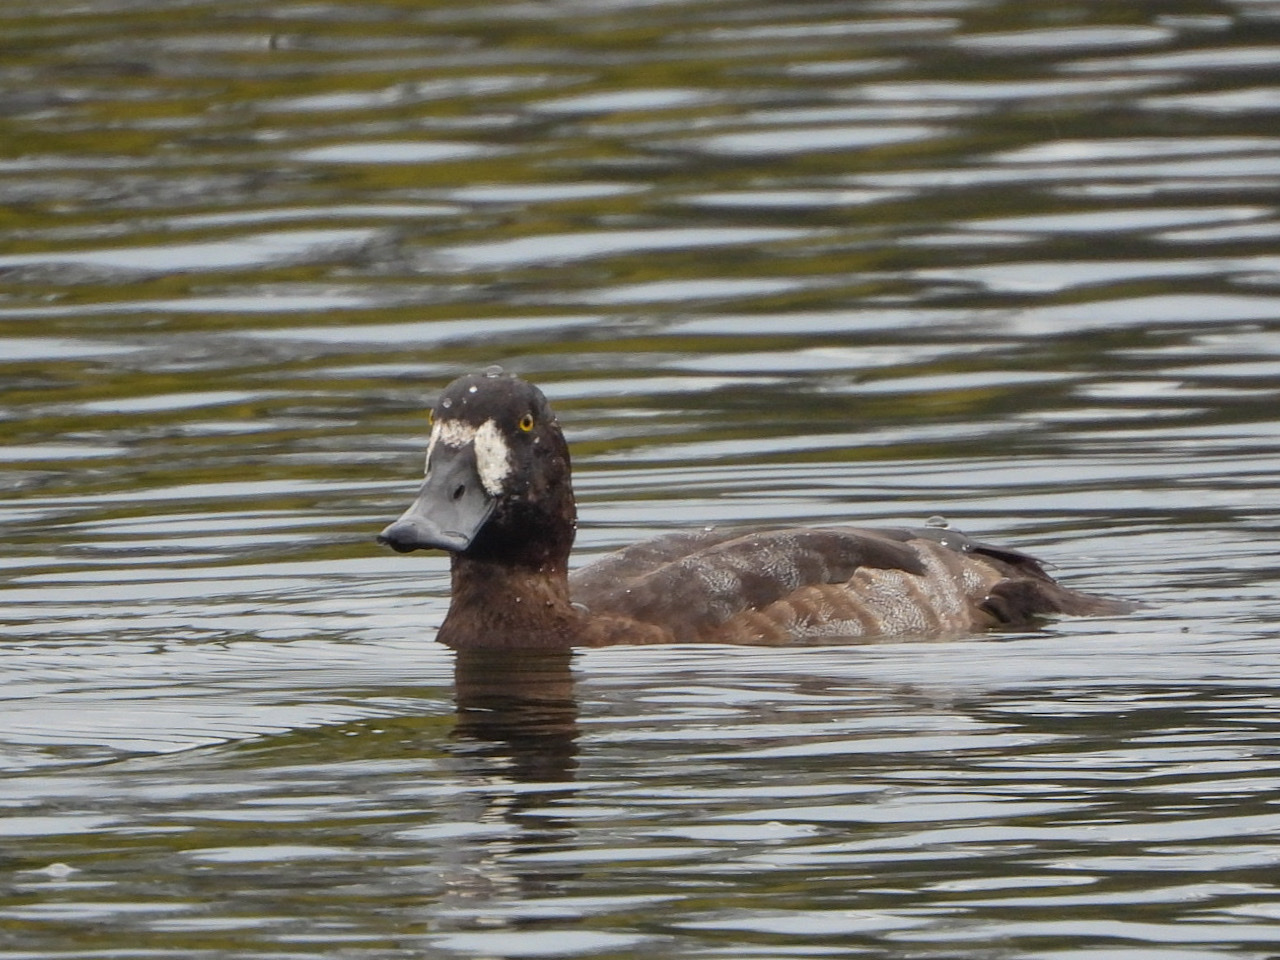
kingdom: Animalia
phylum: Chordata
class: Aves
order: Anseriformes
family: Anatidae
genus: Aythya
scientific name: Aythya marila
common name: Greater scaup
